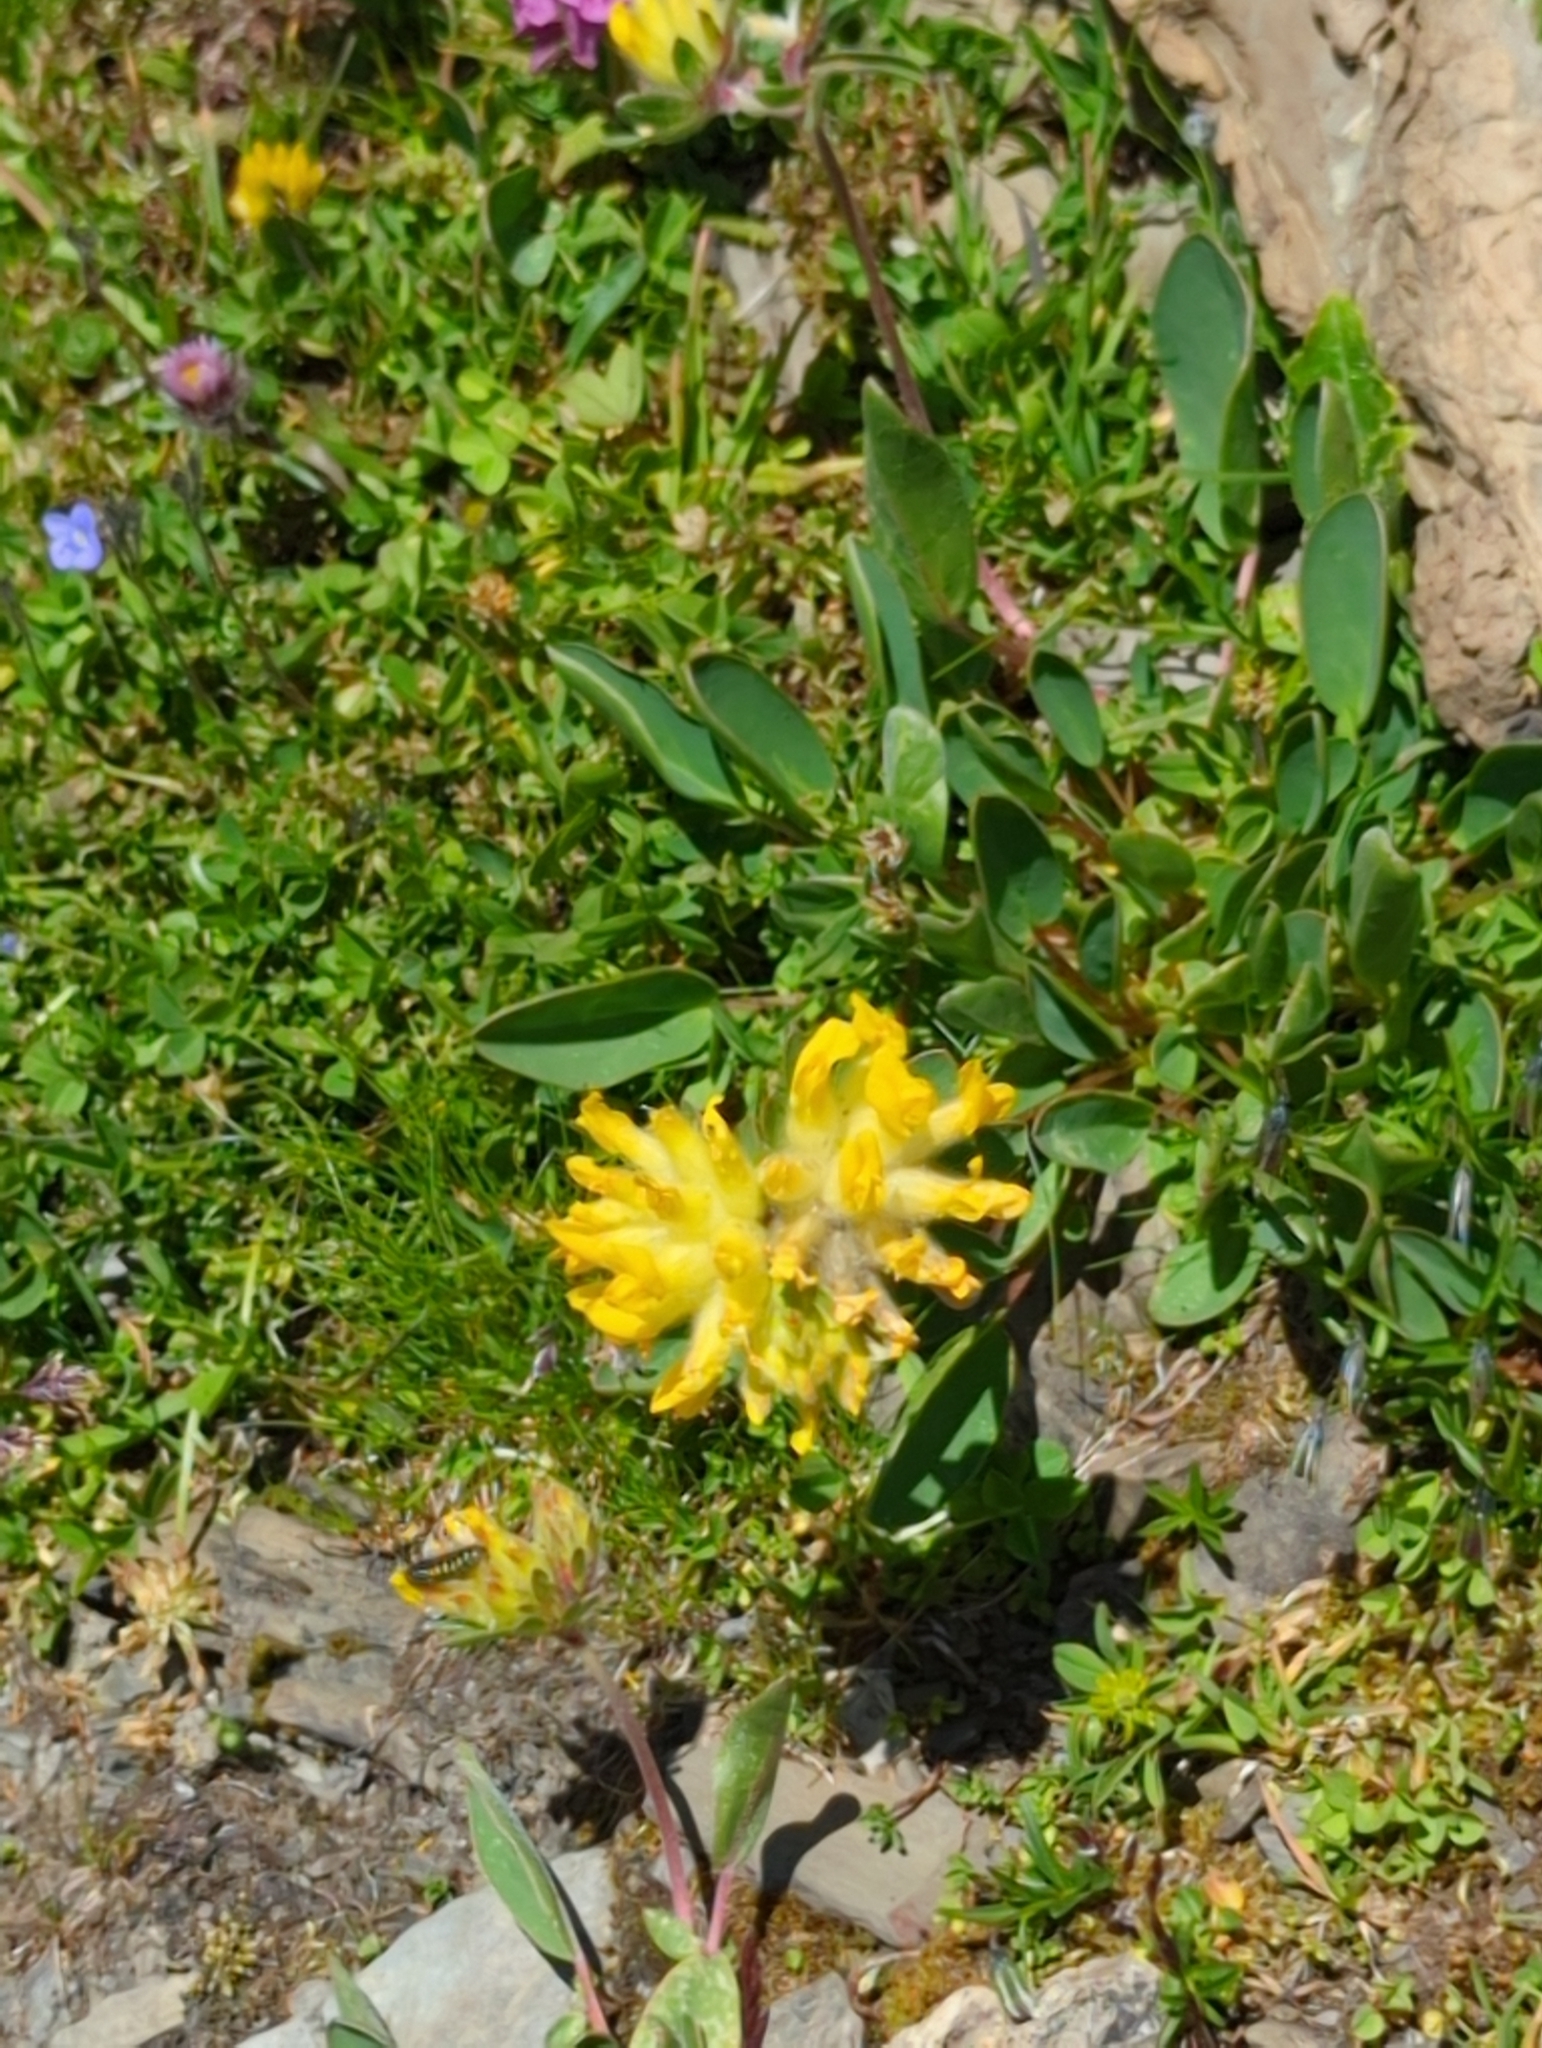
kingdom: Plantae
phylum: Tracheophyta
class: Magnoliopsida
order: Fabales
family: Fabaceae
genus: Anthyllis
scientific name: Anthyllis vulneraria
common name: Kidney vetch
